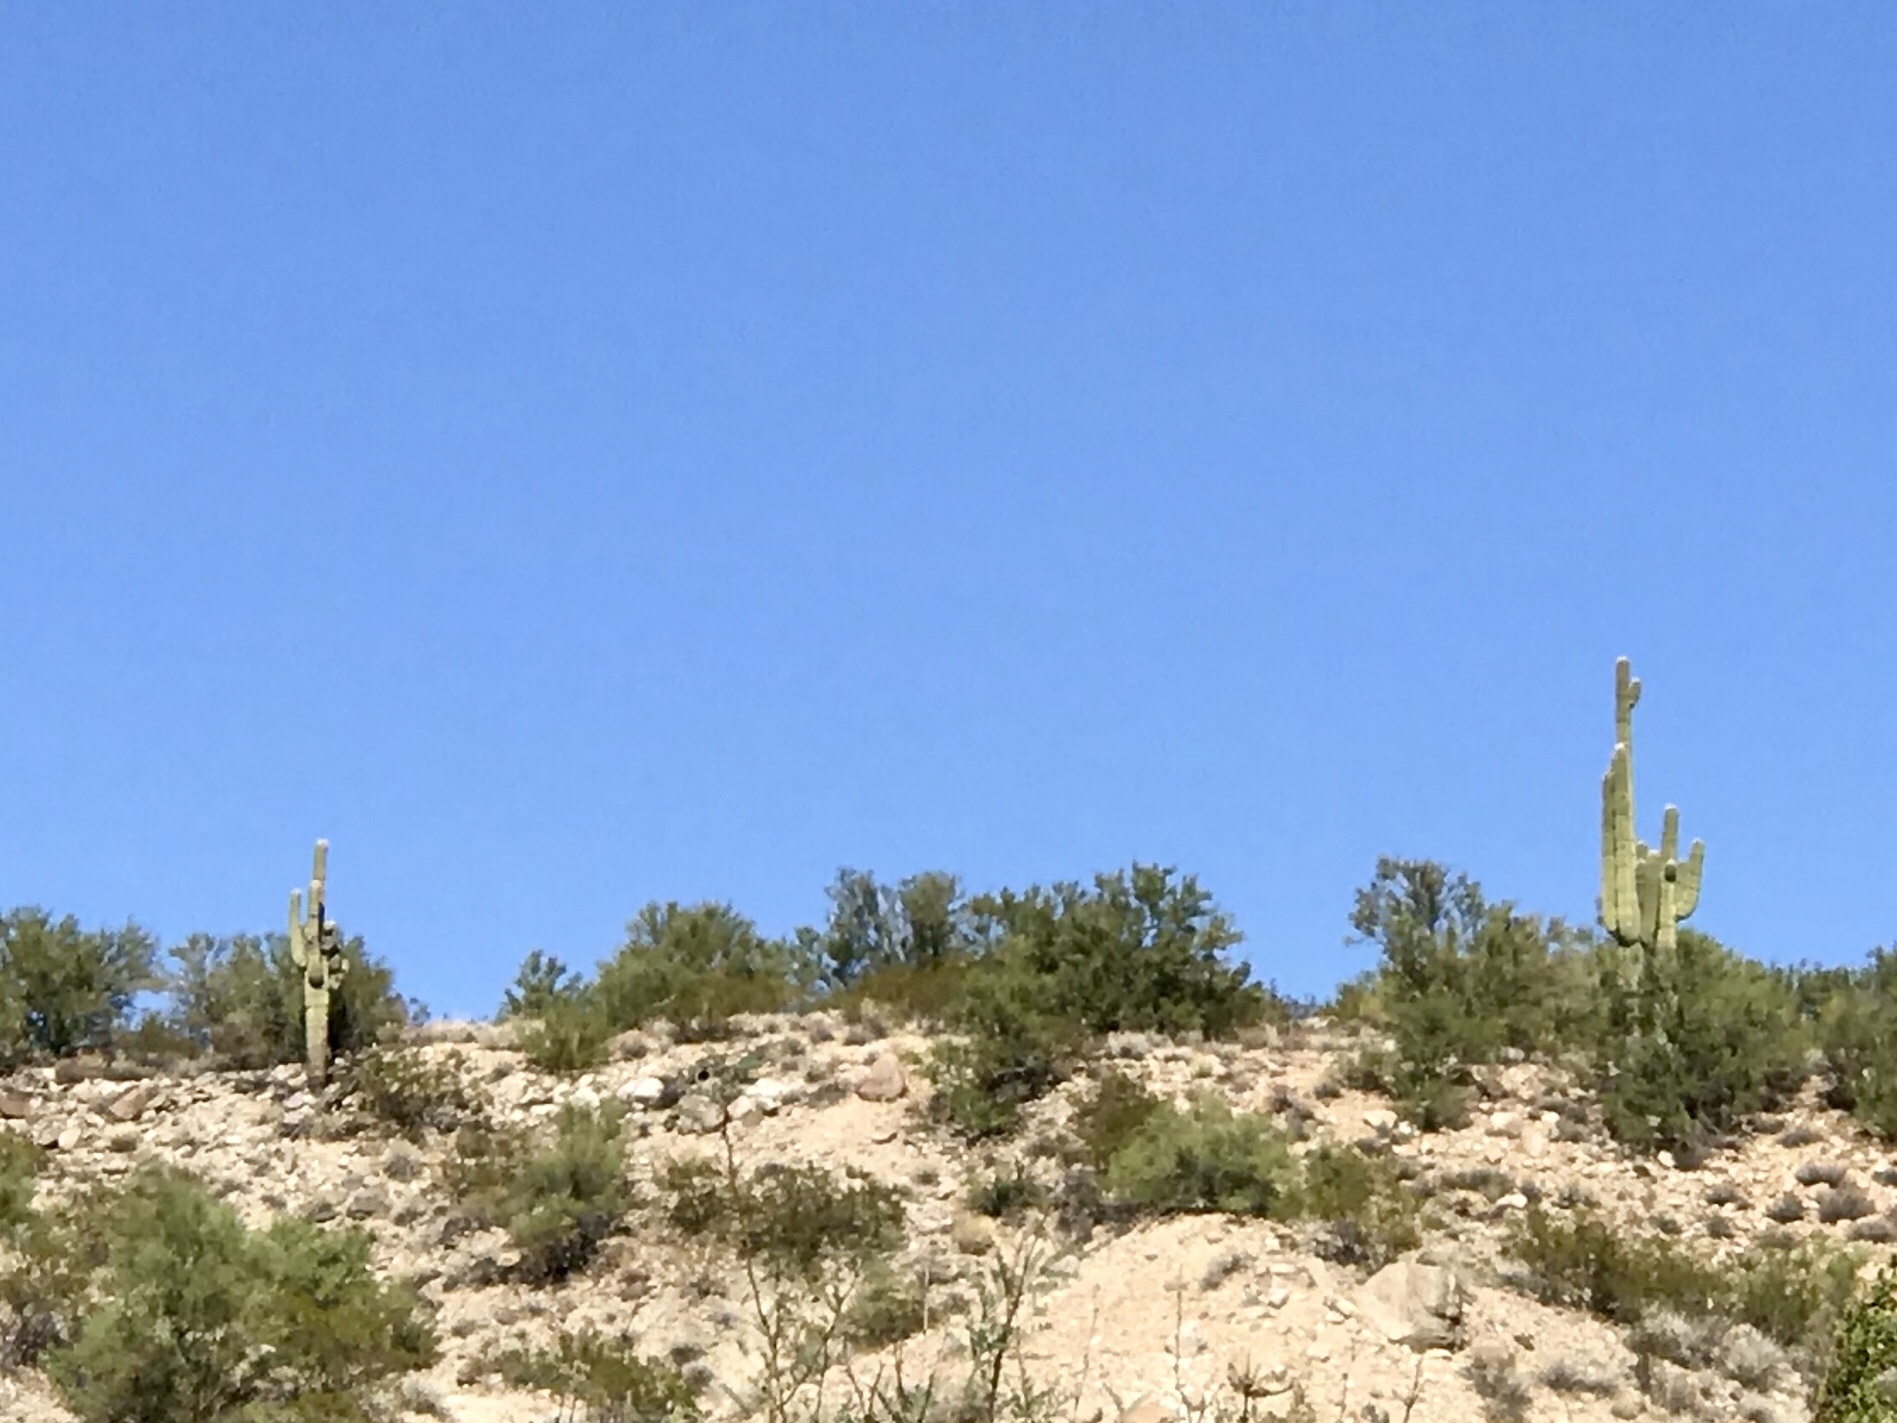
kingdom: Plantae
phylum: Tracheophyta
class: Magnoliopsida
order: Caryophyllales
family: Cactaceae
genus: Carnegiea
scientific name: Carnegiea gigantea
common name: Saguaro
